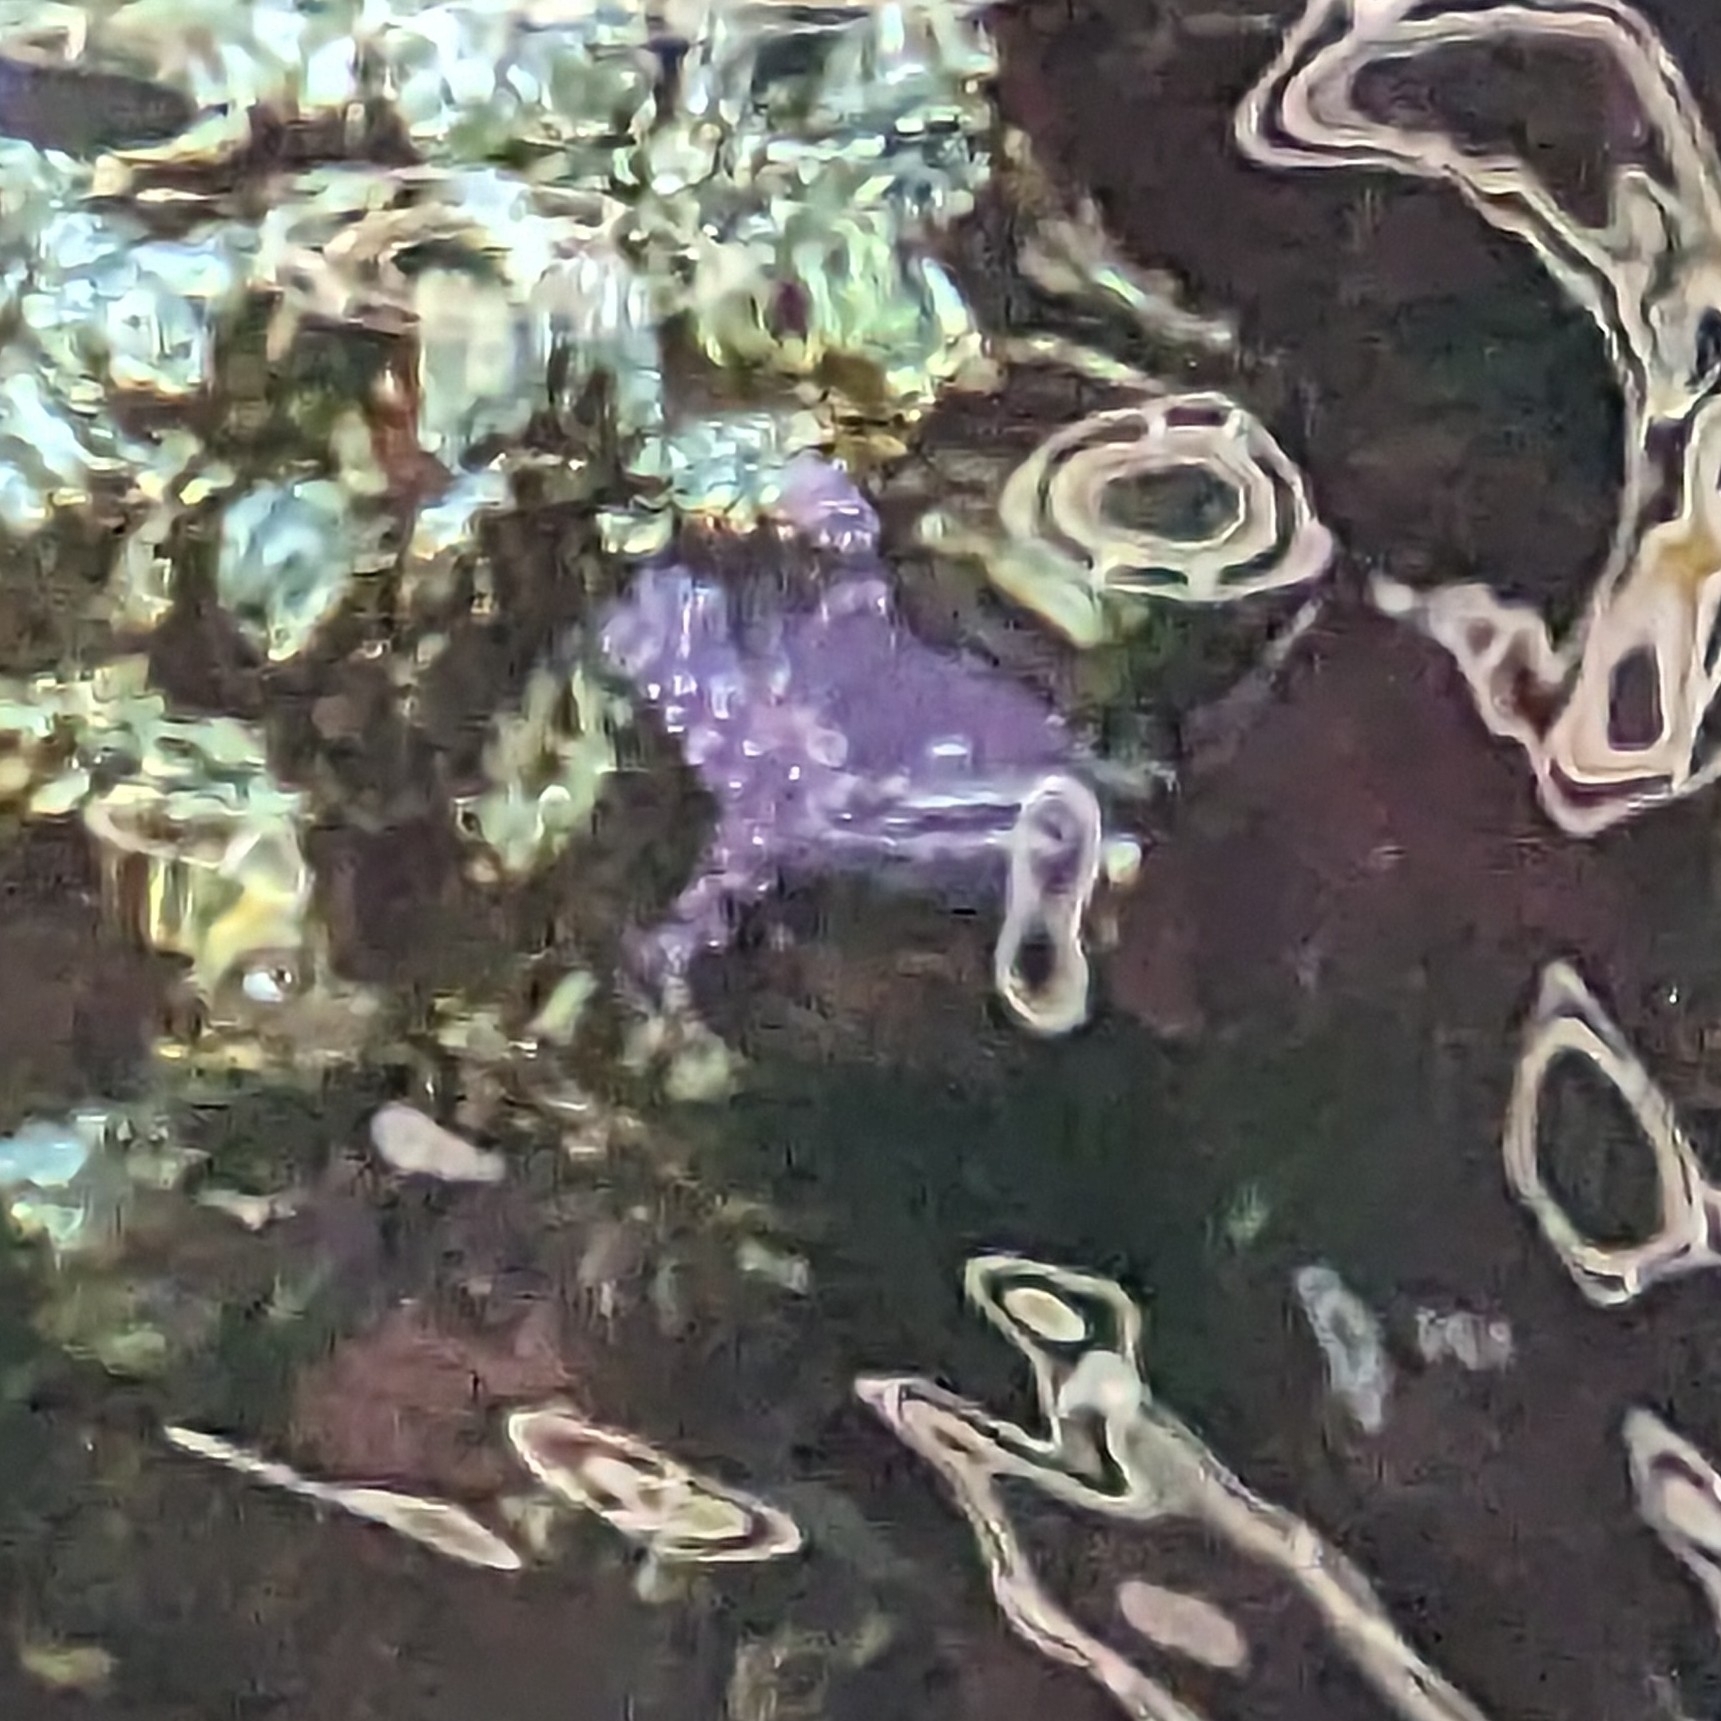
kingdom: Animalia
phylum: Echinodermata
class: Asteroidea
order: Forcipulatida
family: Asteriidae
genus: Pisaster
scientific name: Pisaster ochraceus
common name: Ochre stars
